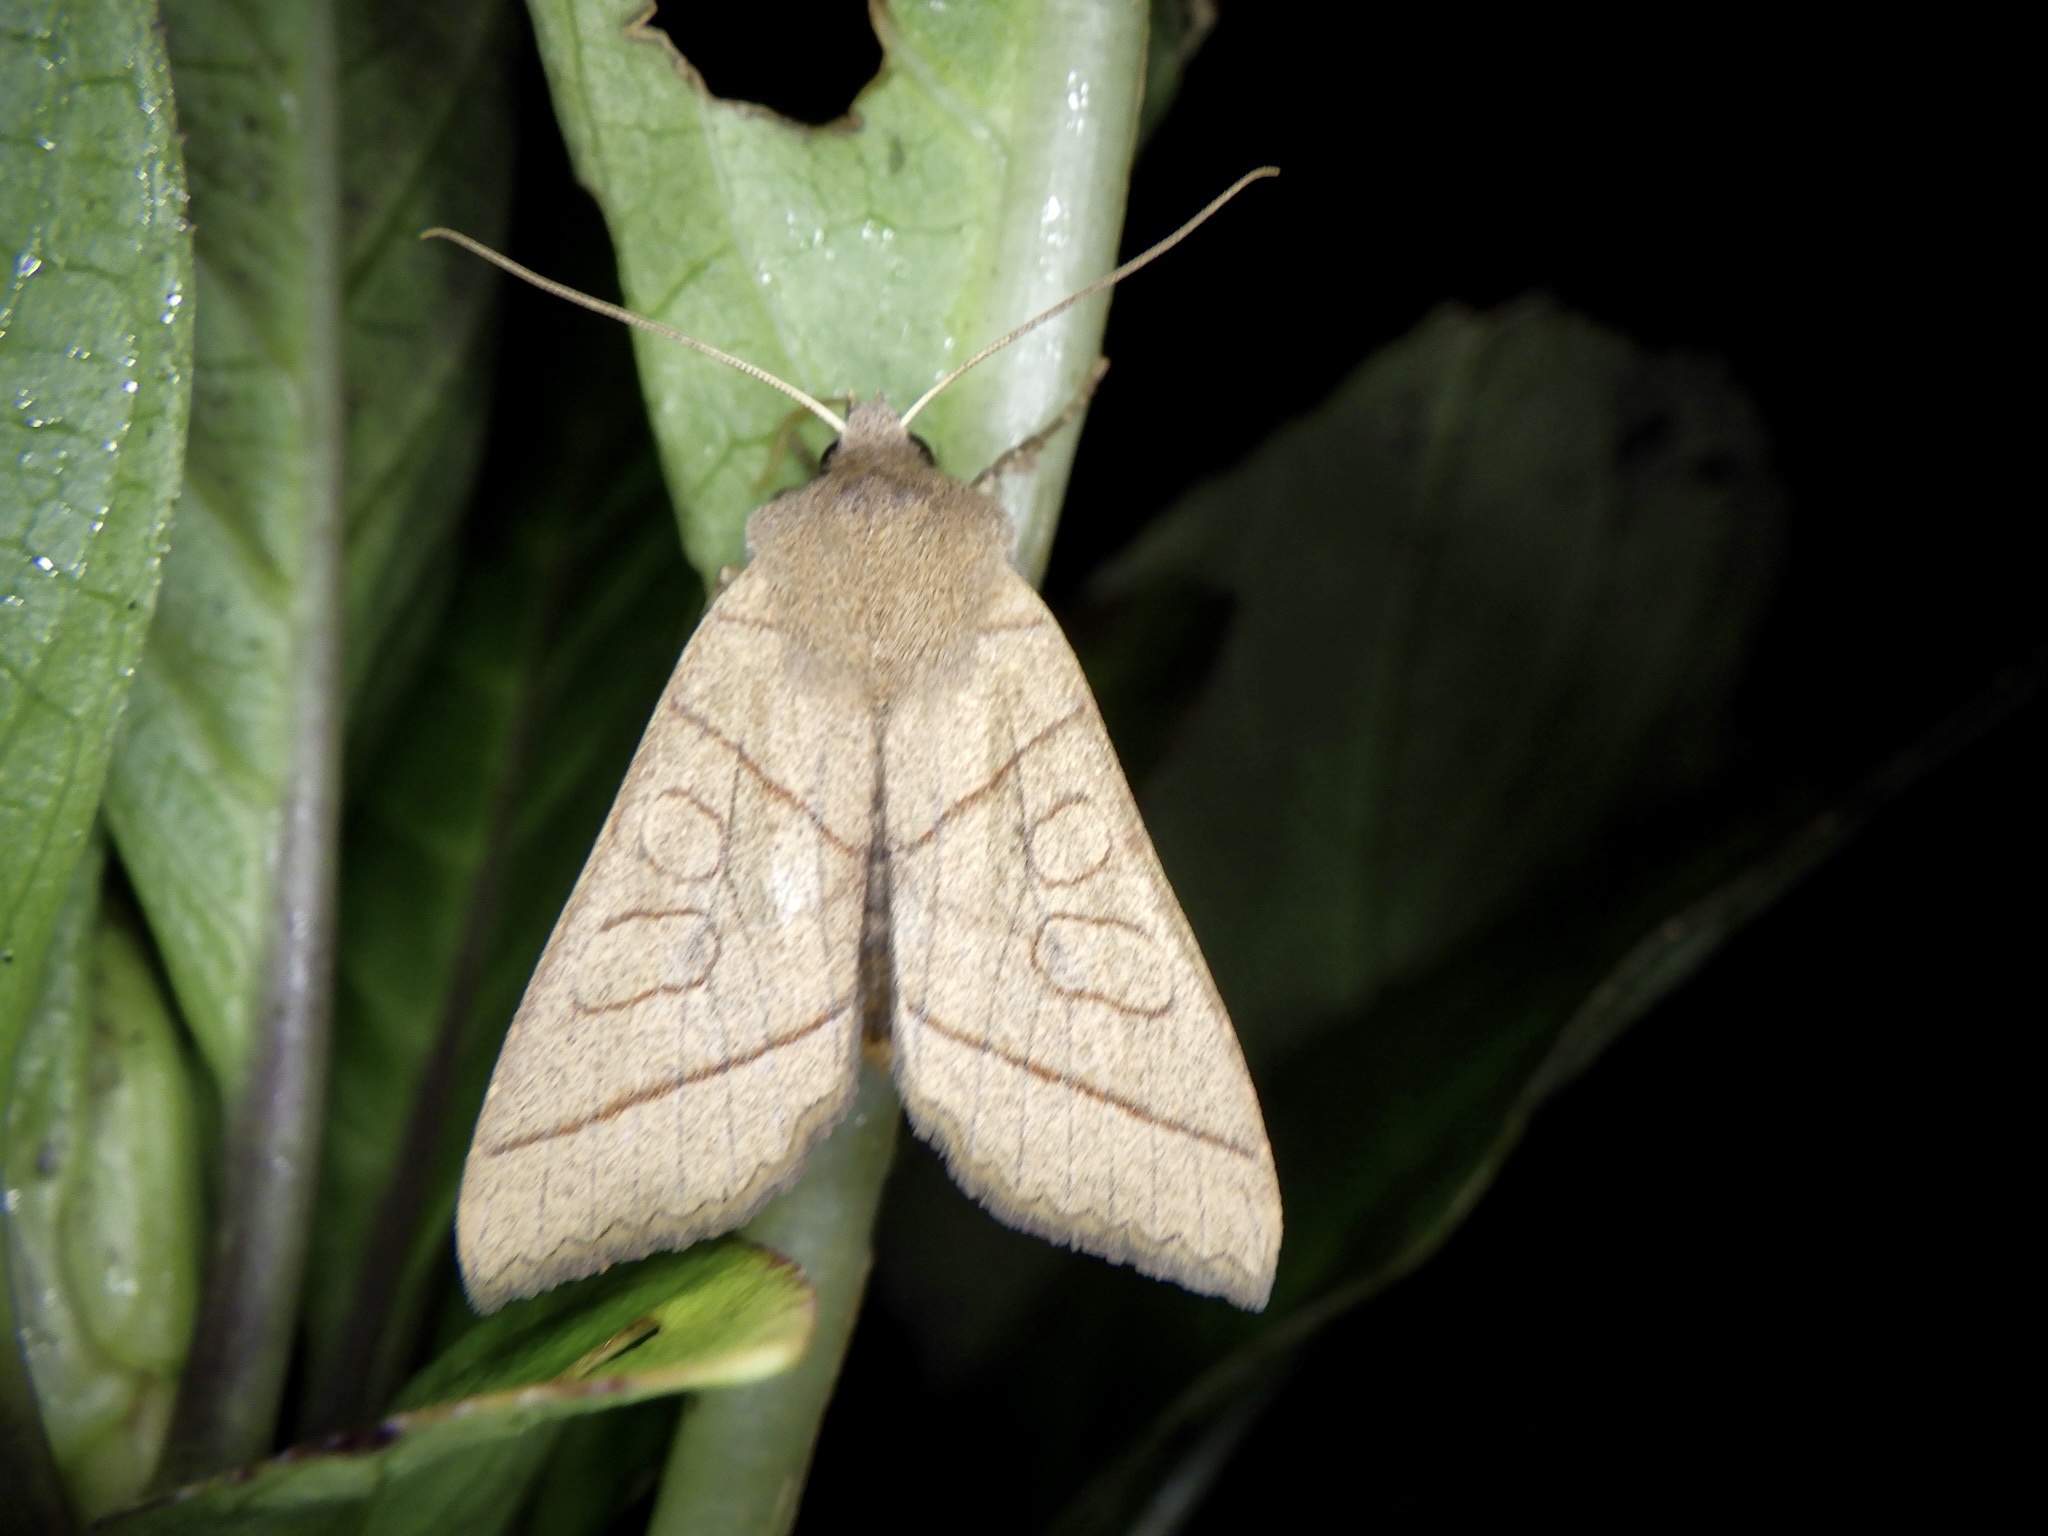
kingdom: Animalia
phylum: Arthropoda
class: Insecta
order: Lepidoptera
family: Noctuidae
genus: Telorta
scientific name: Telorta divergens
